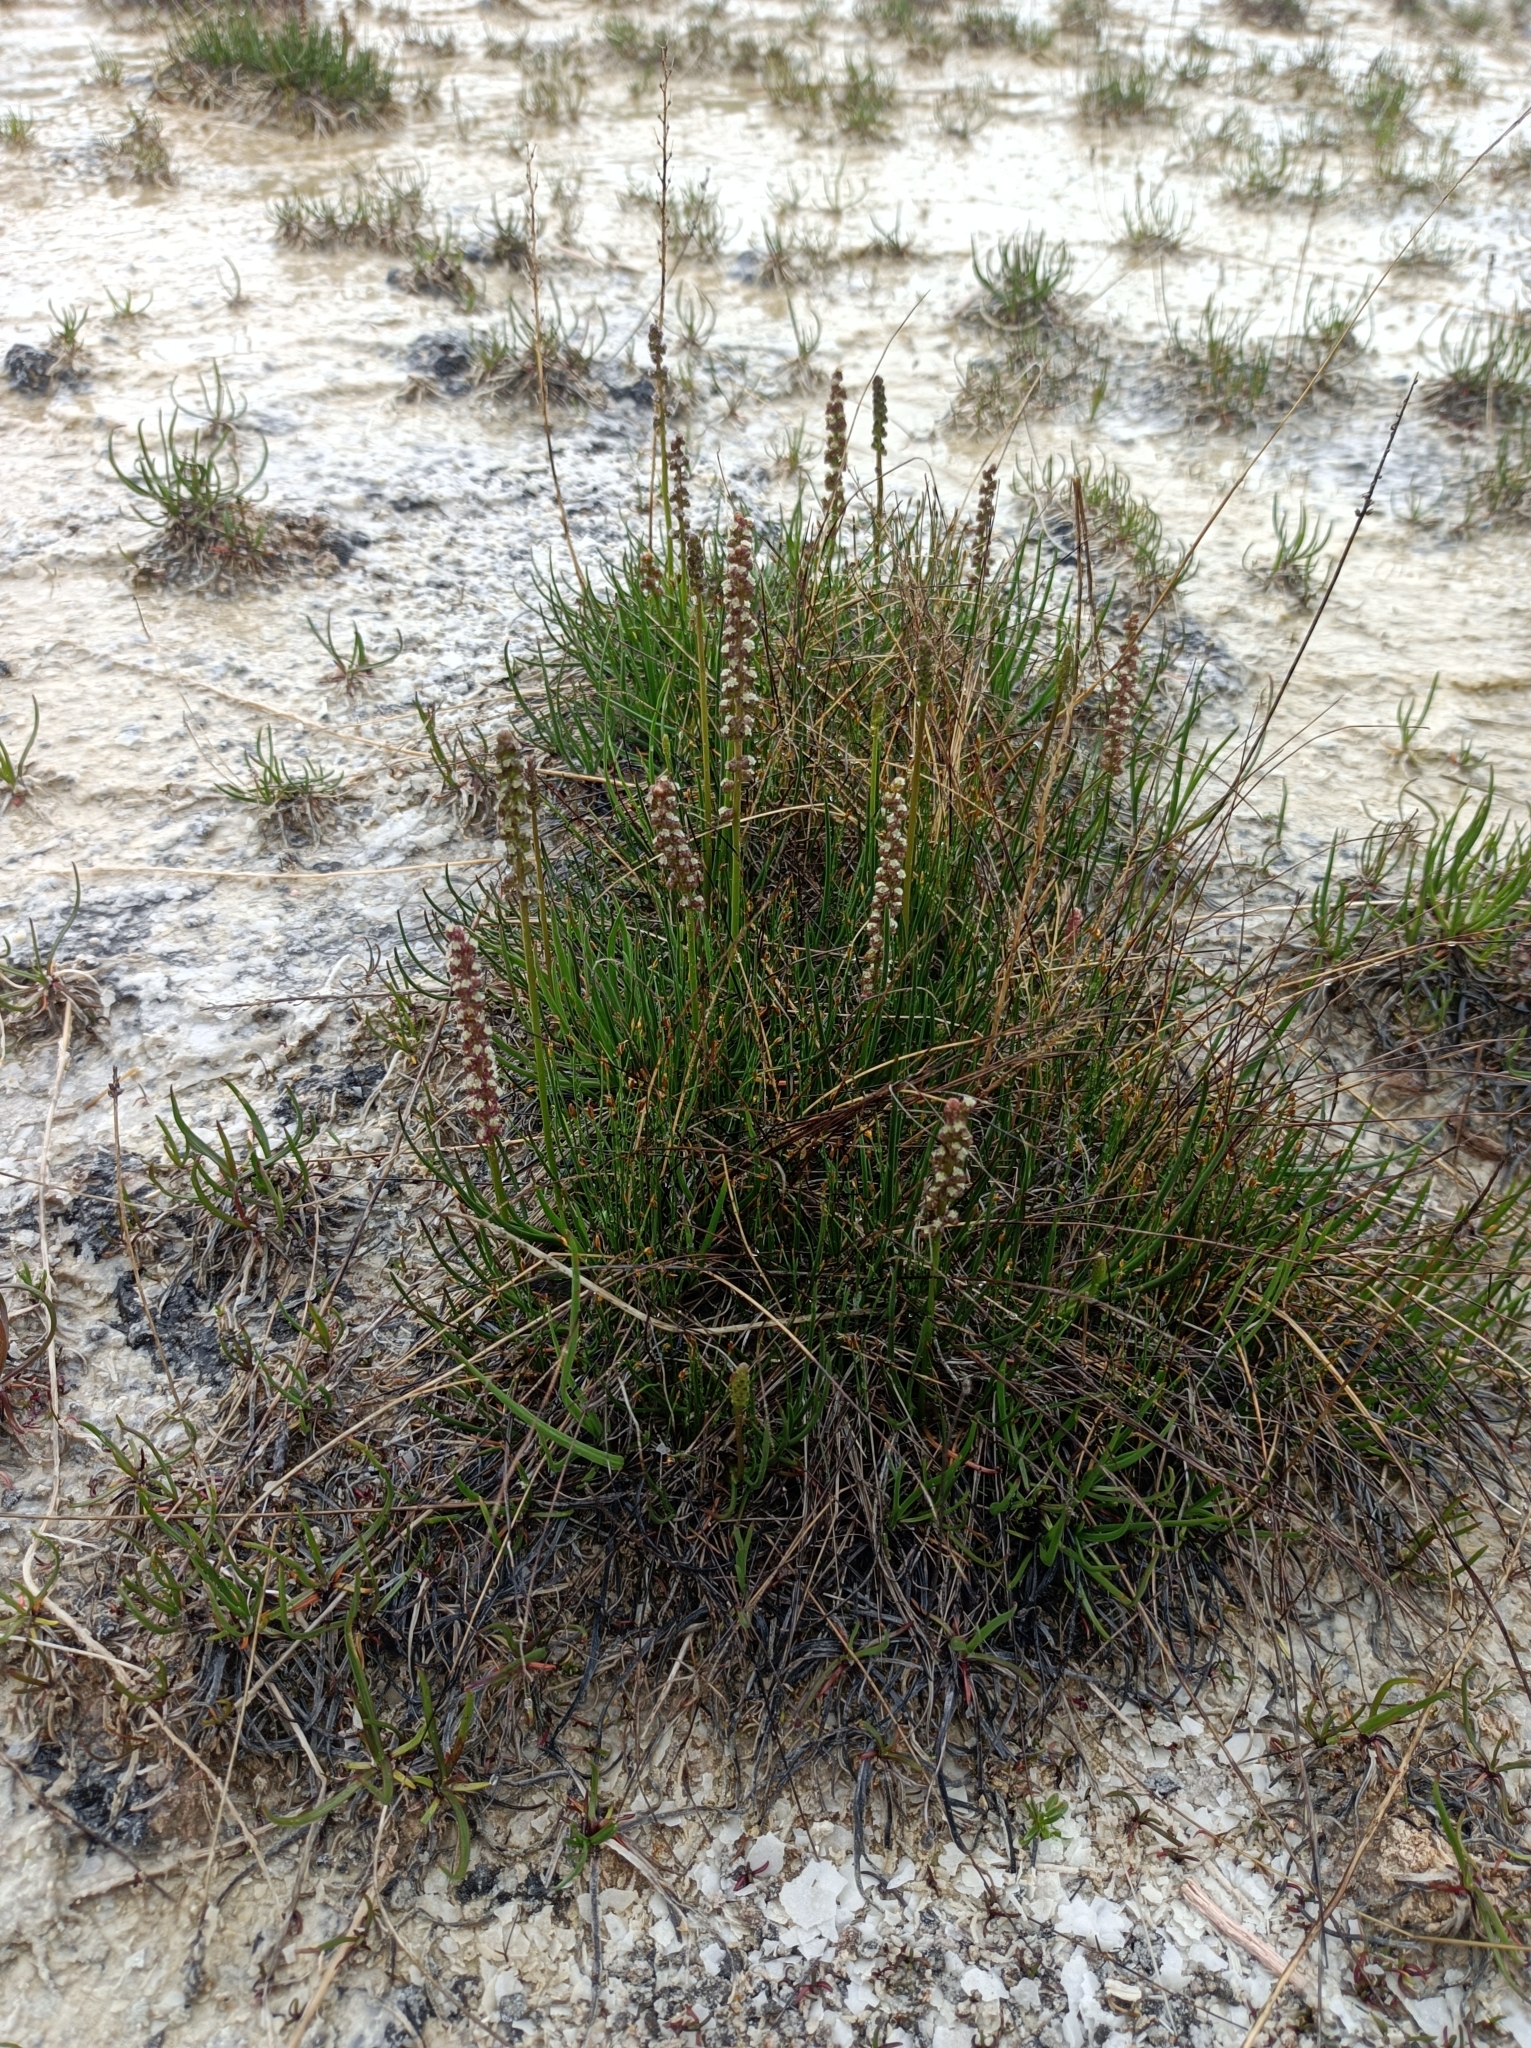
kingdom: Plantae
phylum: Tracheophyta
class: Liliopsida
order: Alismatales
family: Juncaginaceae
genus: Triglochin
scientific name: Triglochin maritima
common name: Sea arrowgrass
